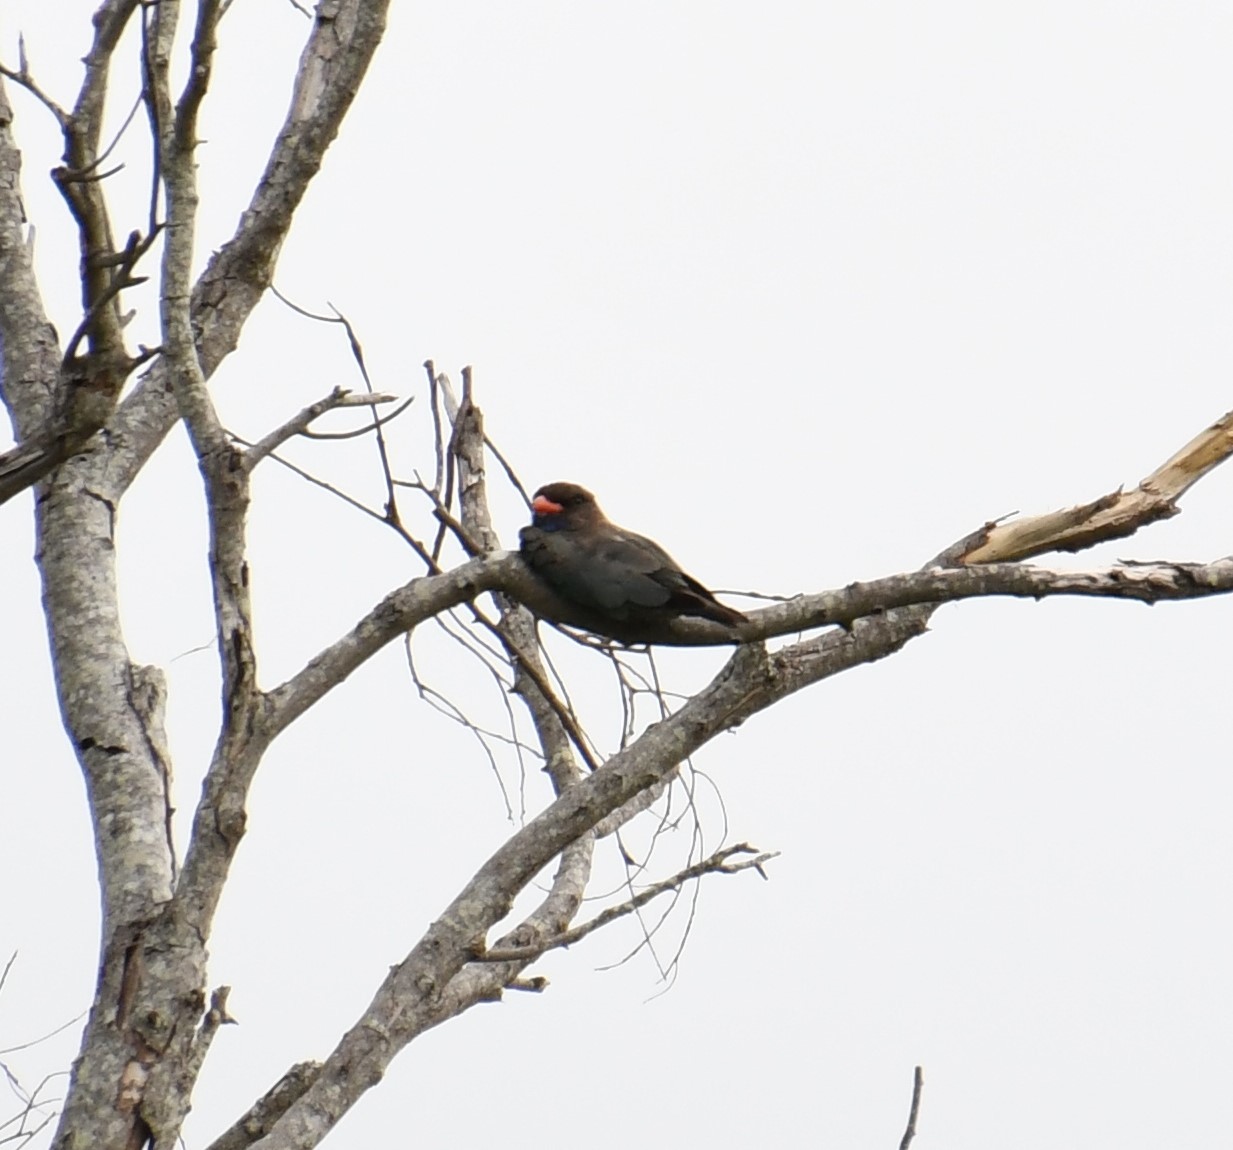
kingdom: Animalia
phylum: Chordata
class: Aves
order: Coraciiformes
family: Coraciidae
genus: Eurystomus
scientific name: Eurystomus orientalis
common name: Oriental dollarbird
